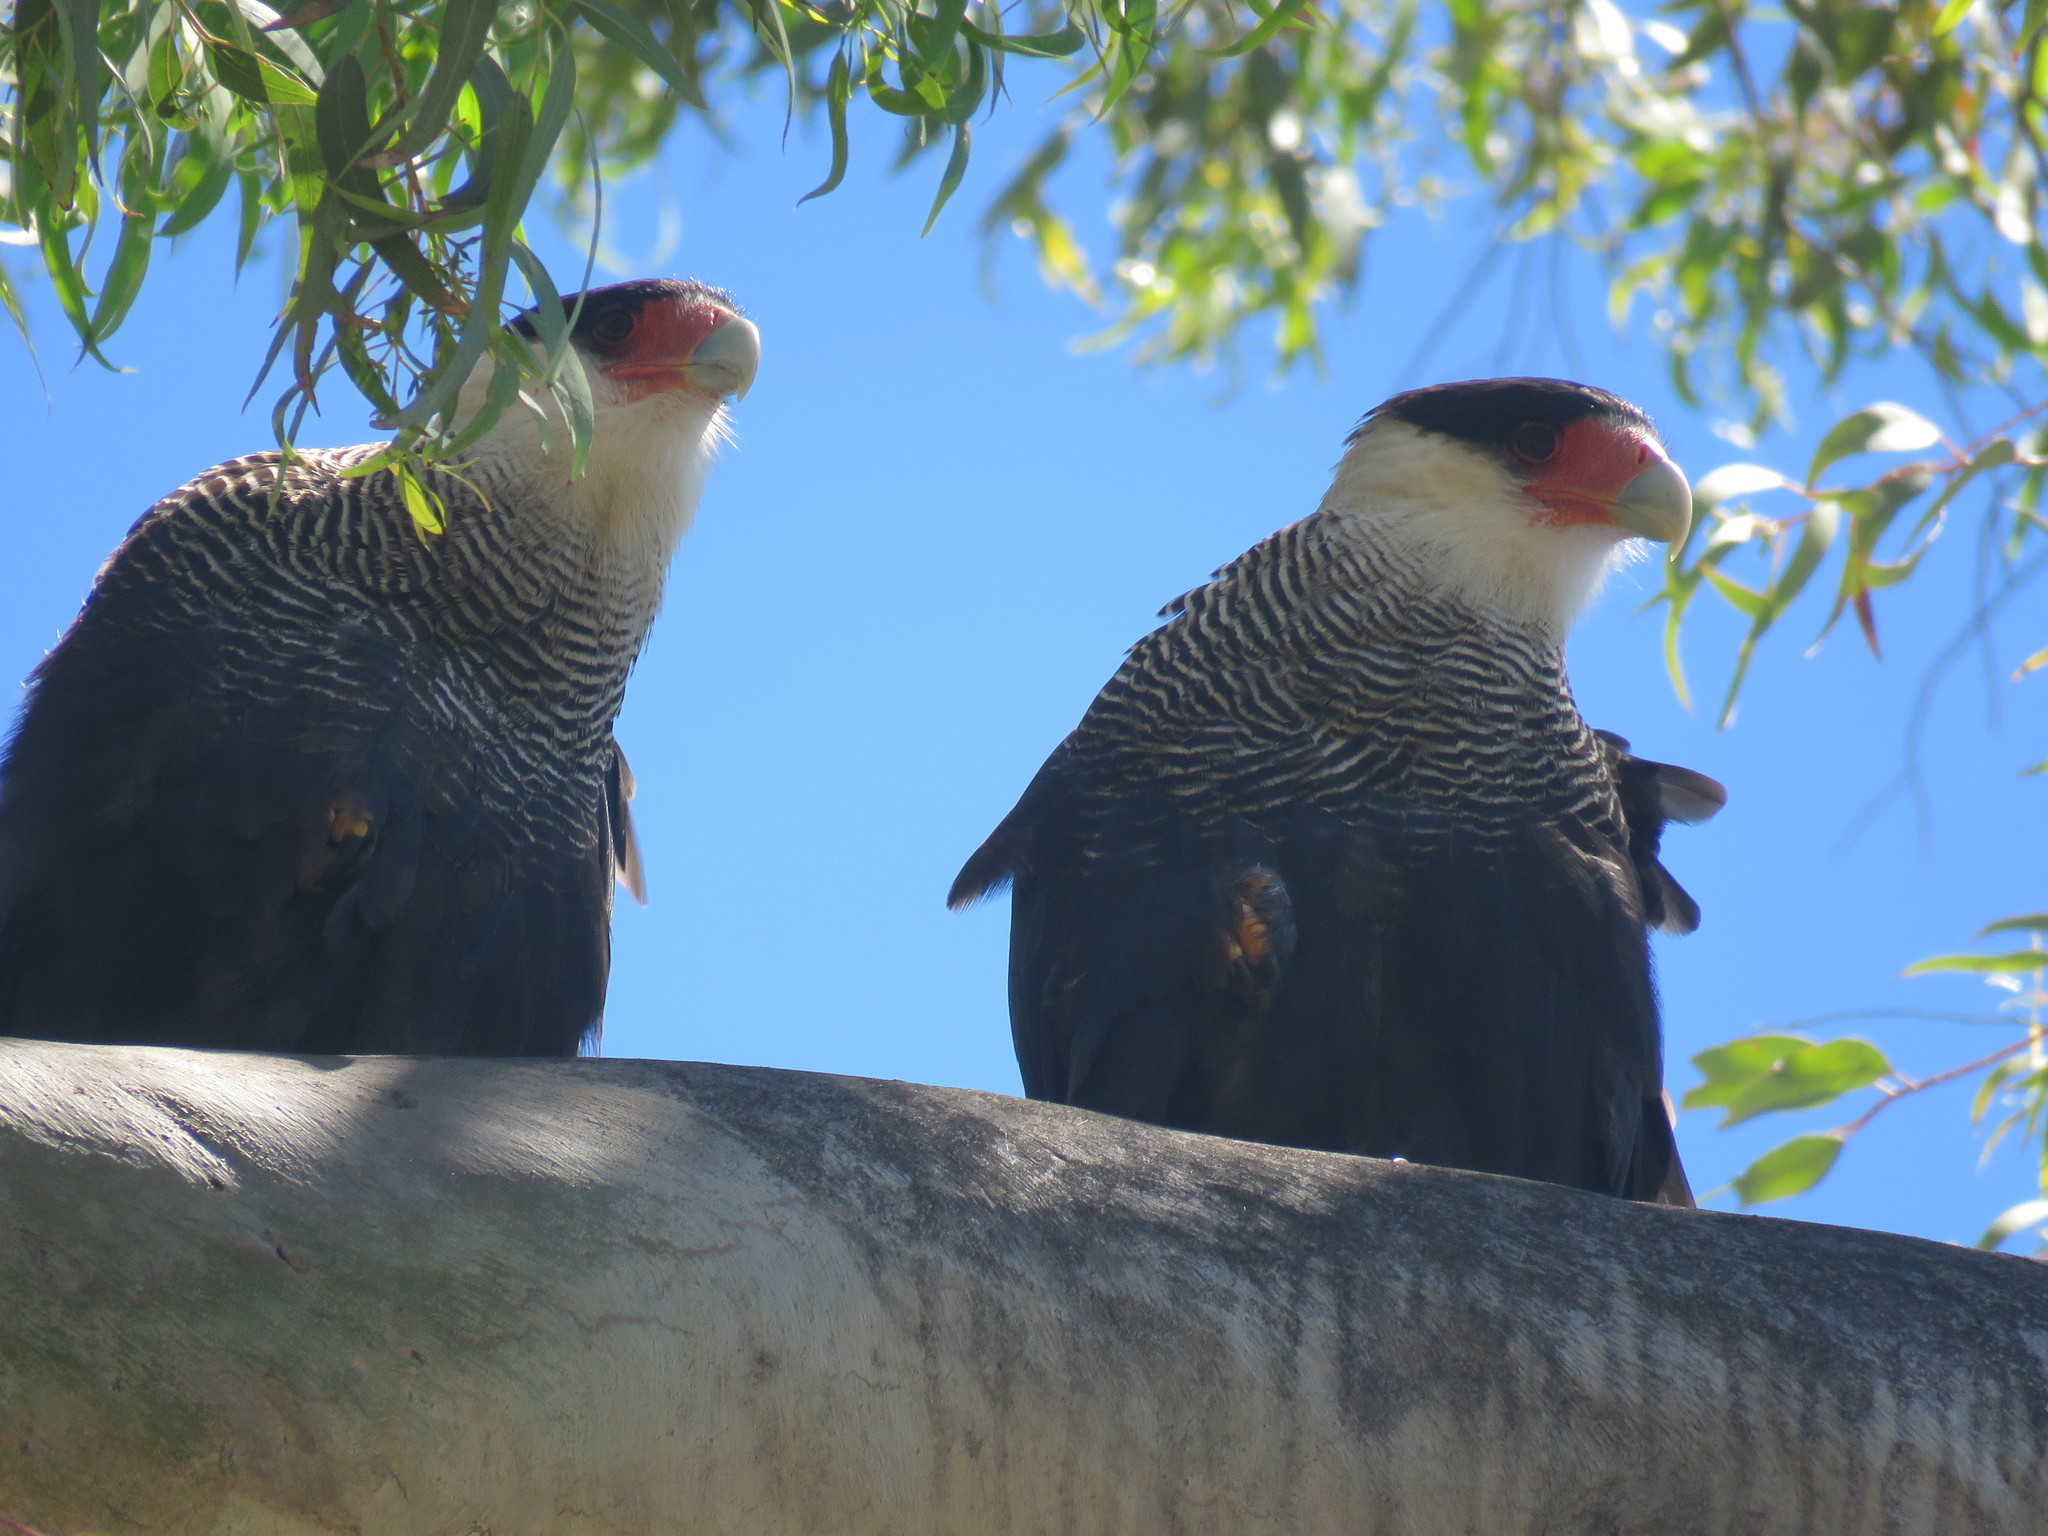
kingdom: Animalia
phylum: Chordata
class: Aves
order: Falconiformes
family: Falconidae
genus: Caracara
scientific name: Caracara plancus
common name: Southern caracara
